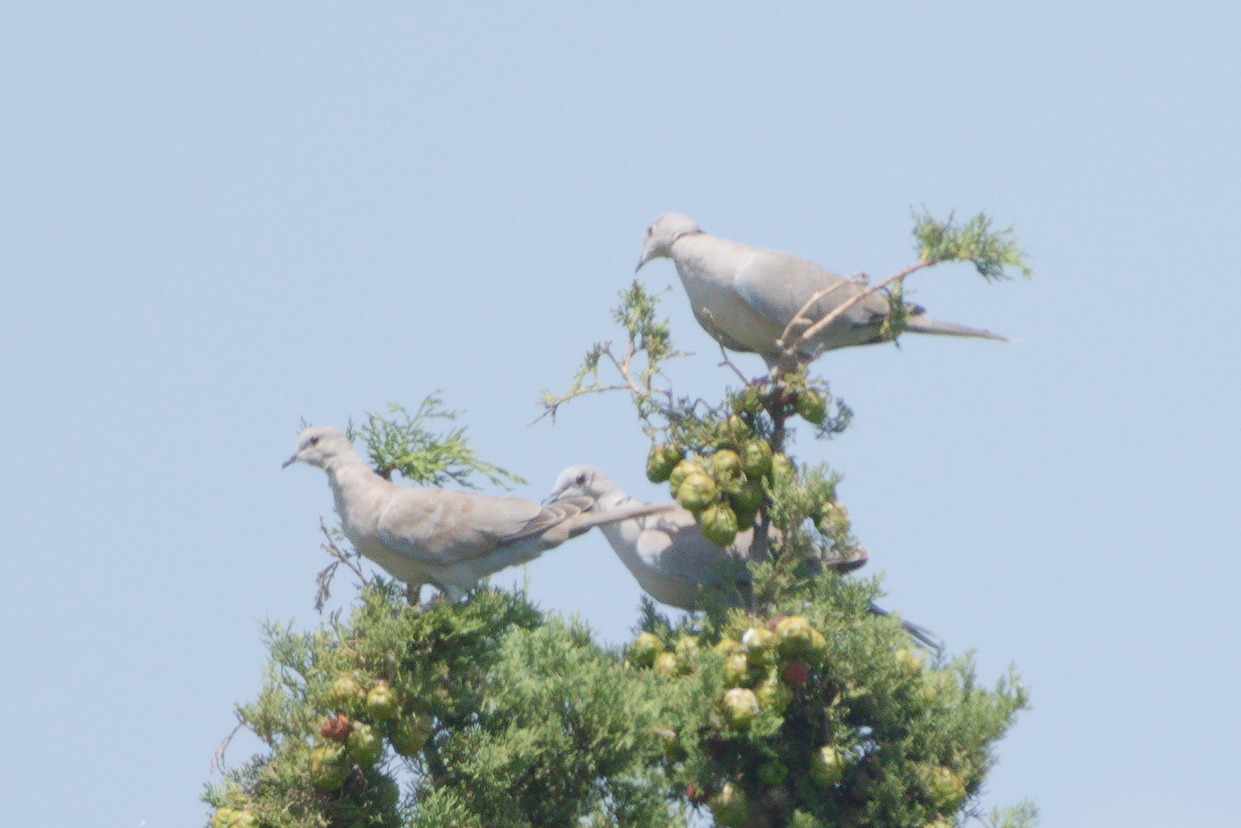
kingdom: Animalia
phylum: Chordata
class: Aves
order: Columbiformes
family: Columbidae
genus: Streptopelia
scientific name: Streptopelia decaocto
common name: Eurasian collared dove
